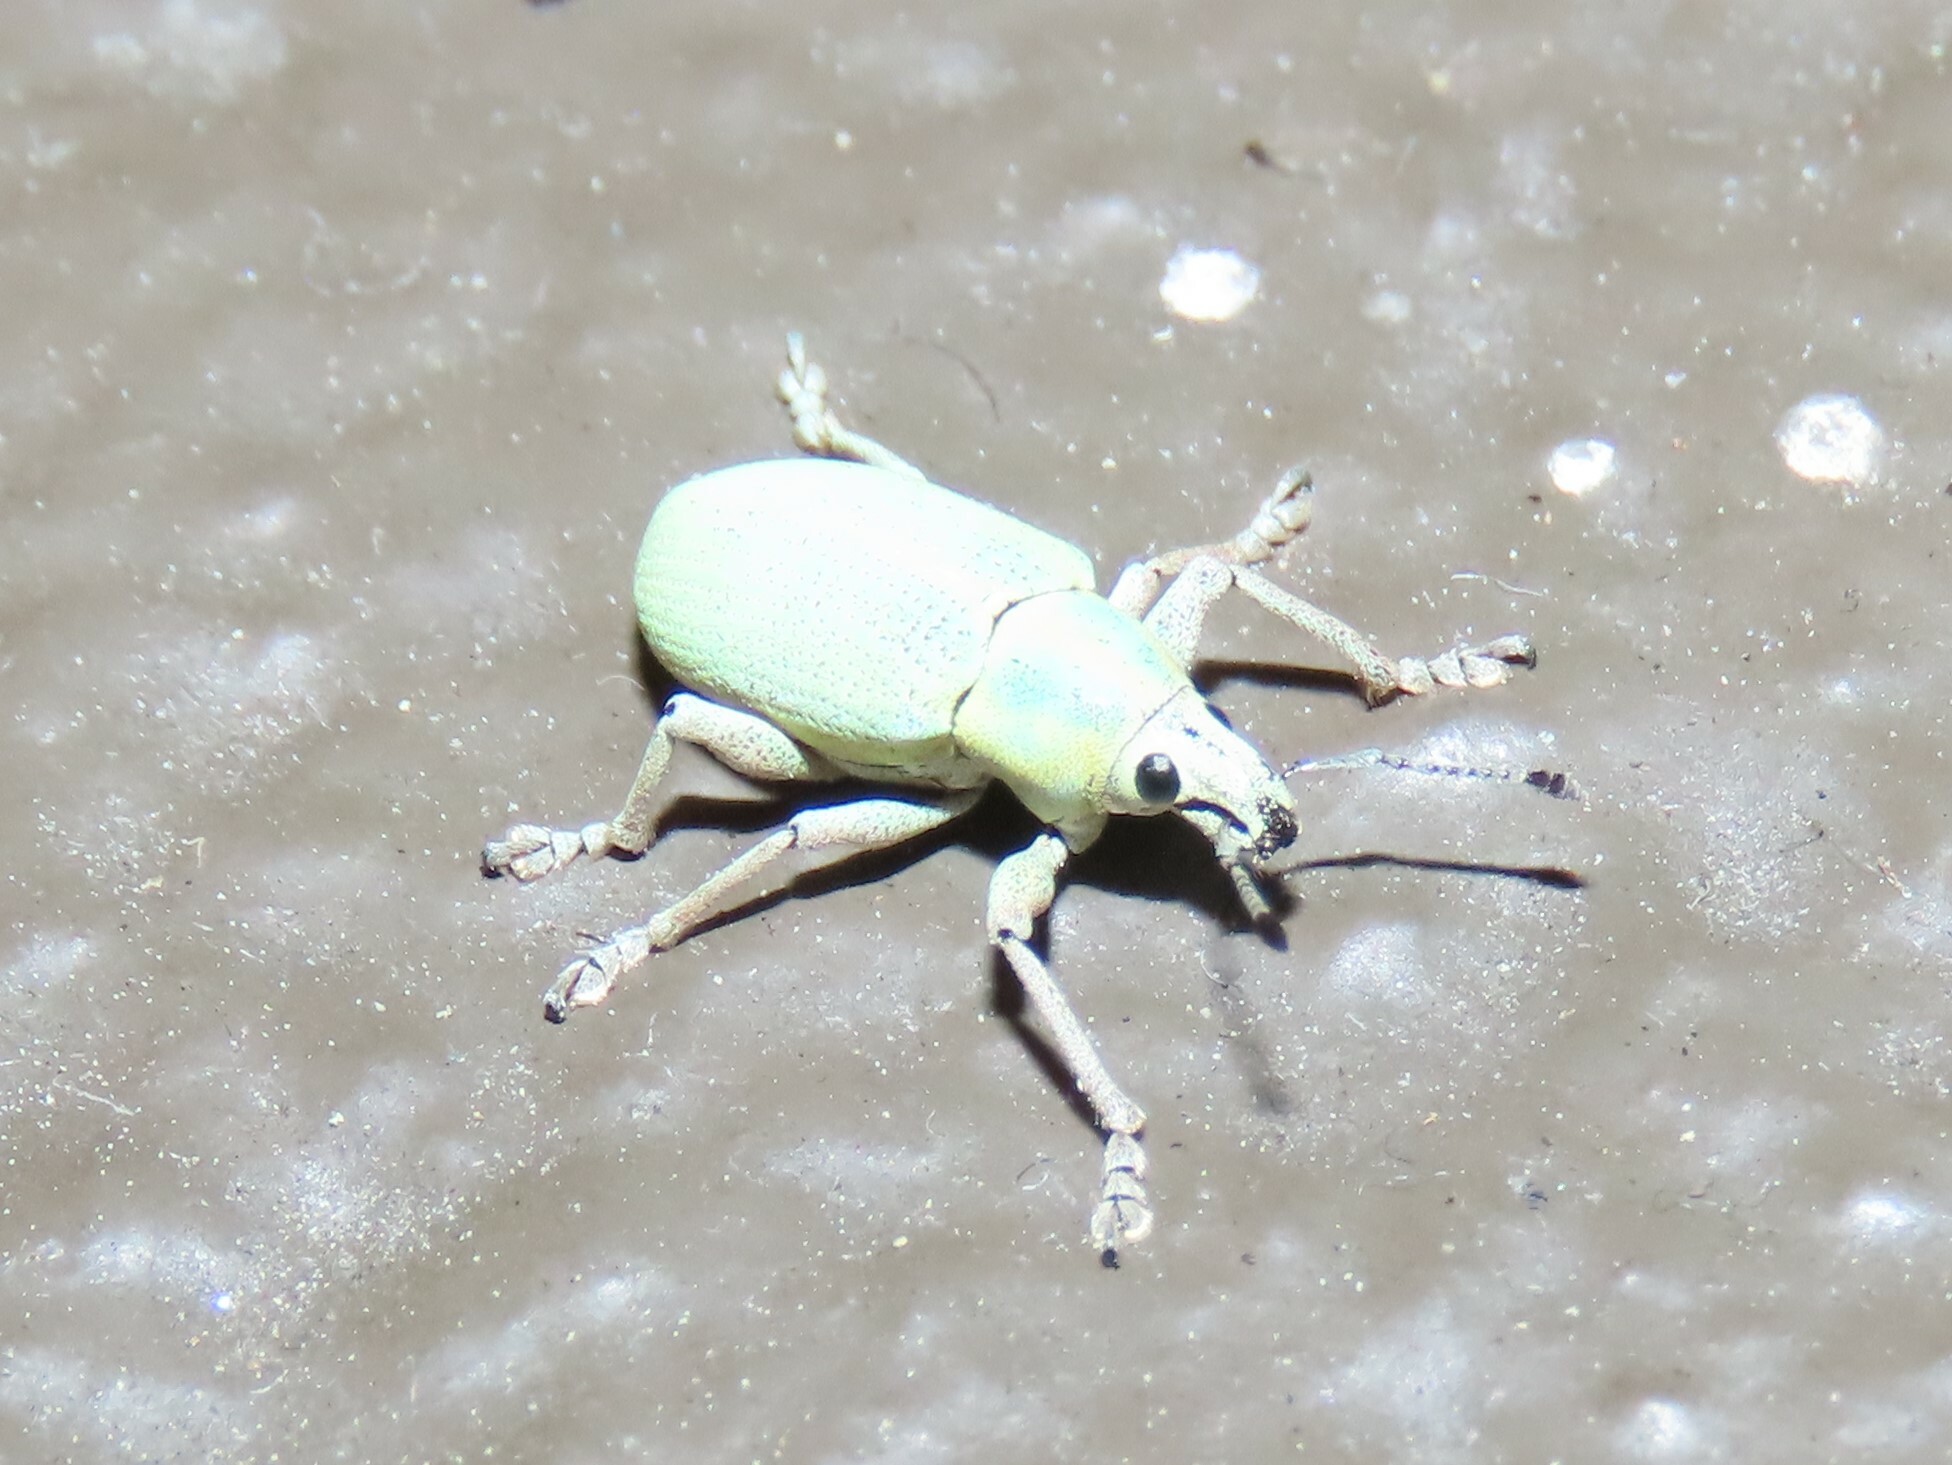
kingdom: Animalia
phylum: Arthropoda
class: Insecta
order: Coleoptera
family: Curculionidae
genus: Pachnaeus
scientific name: Pachnaeus litus
